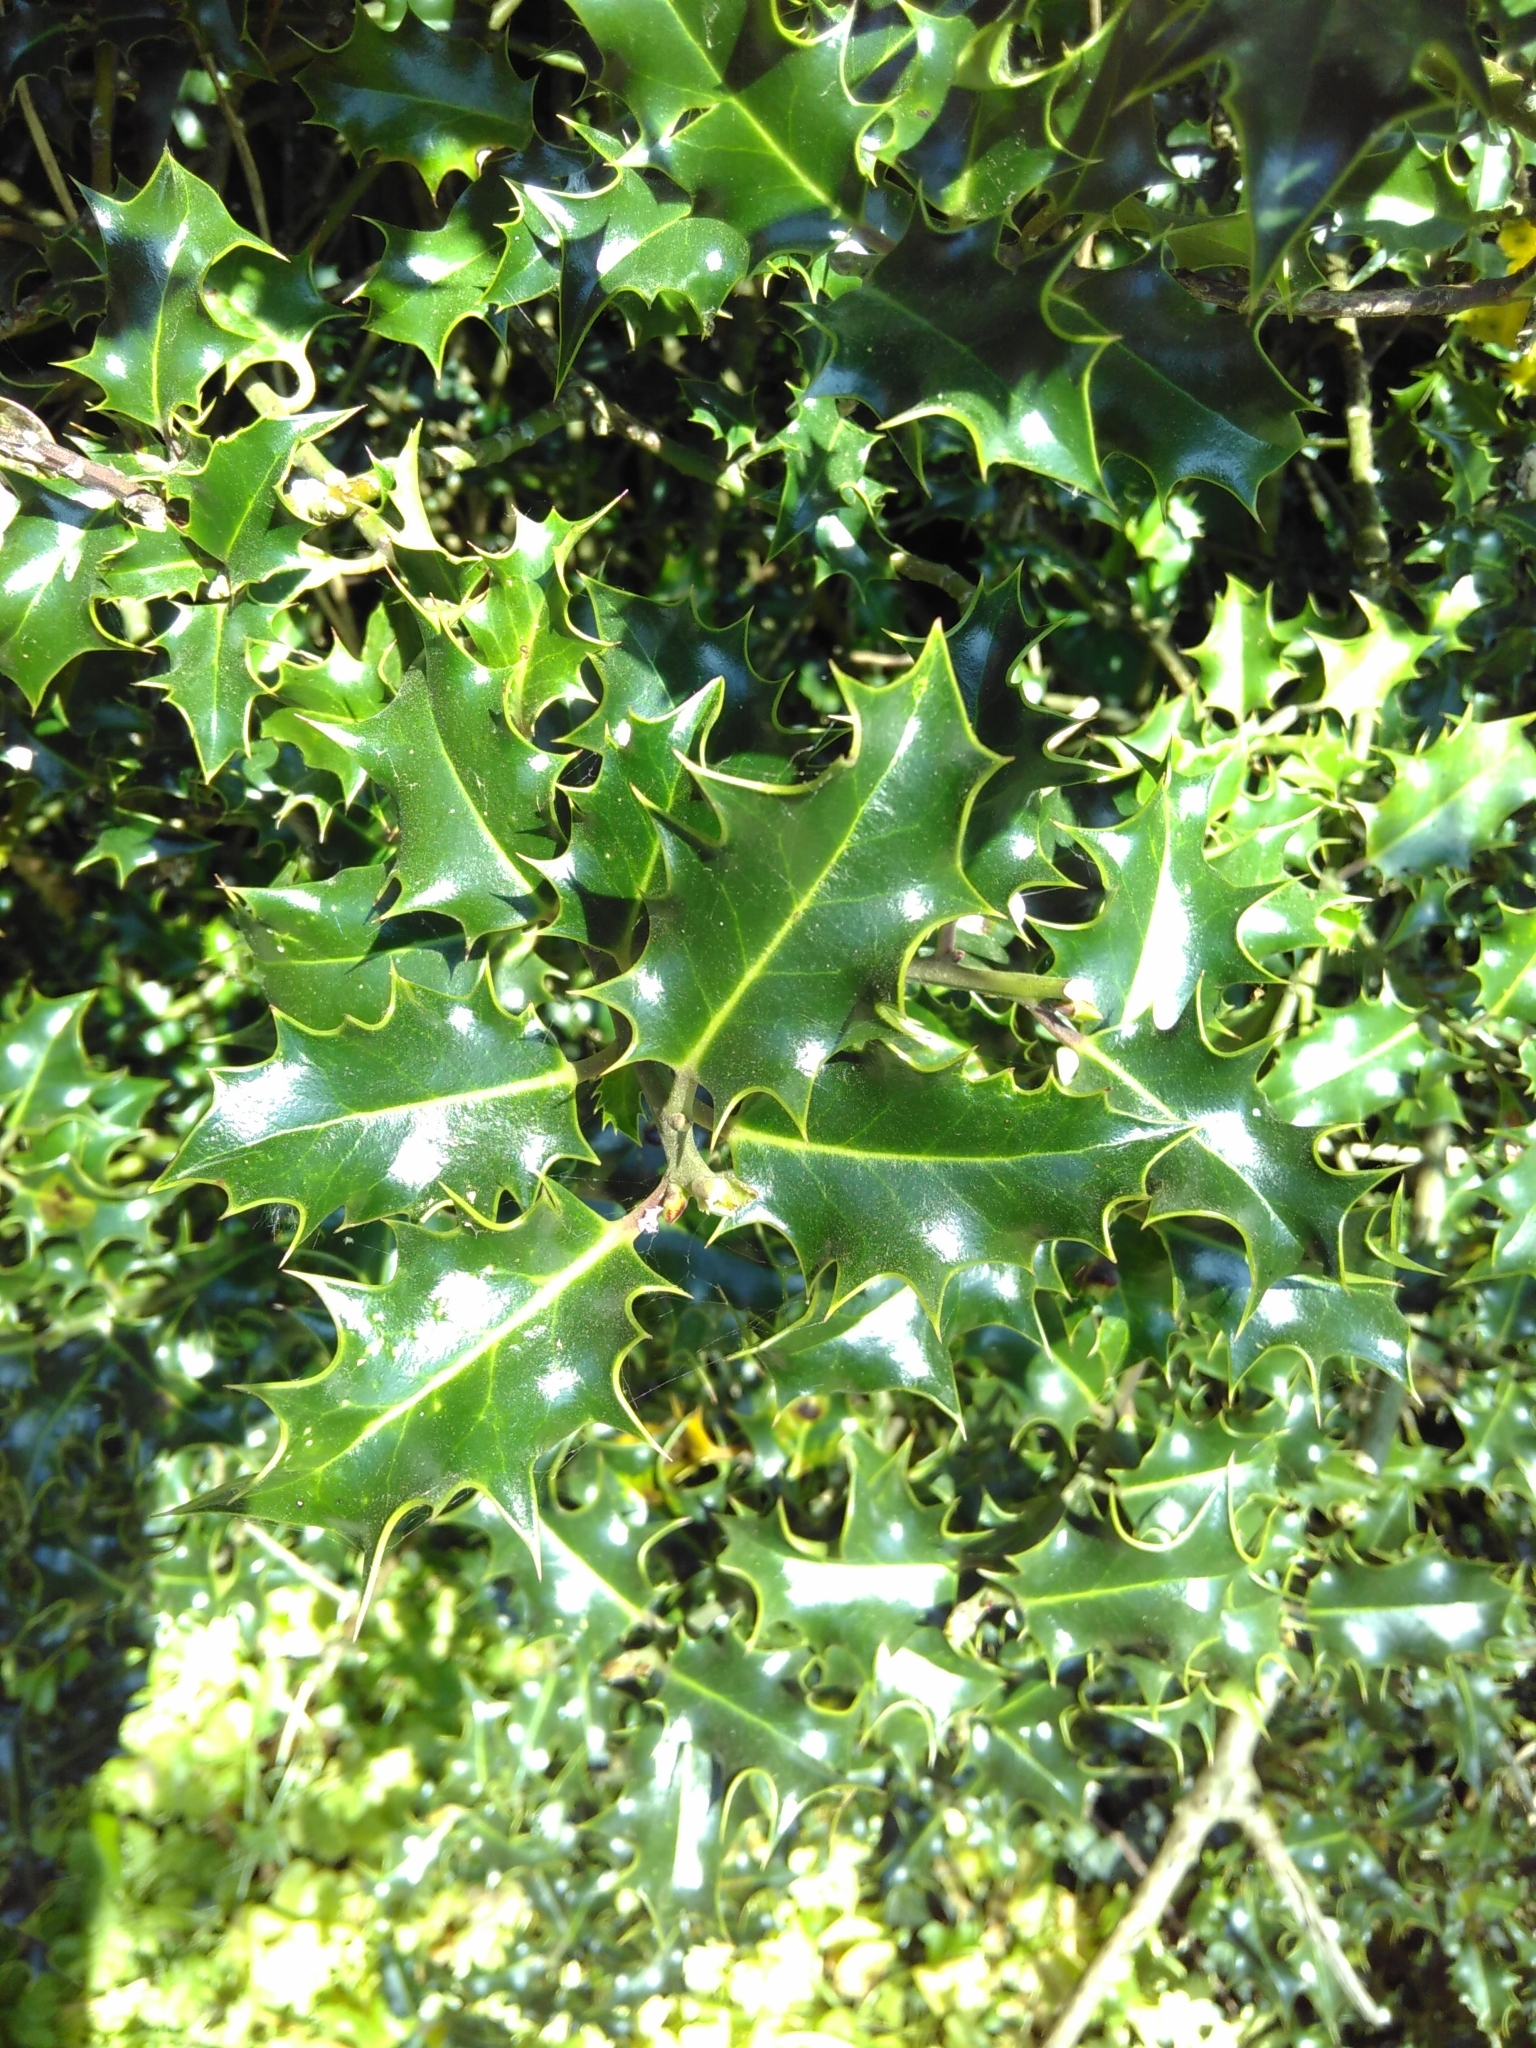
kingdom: Plantae
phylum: Tracheophyta
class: Magnoliopsida
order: Aquifoliales
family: Aquifoliaceae
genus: Ilex
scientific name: Ilex aquifolium
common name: English holly
